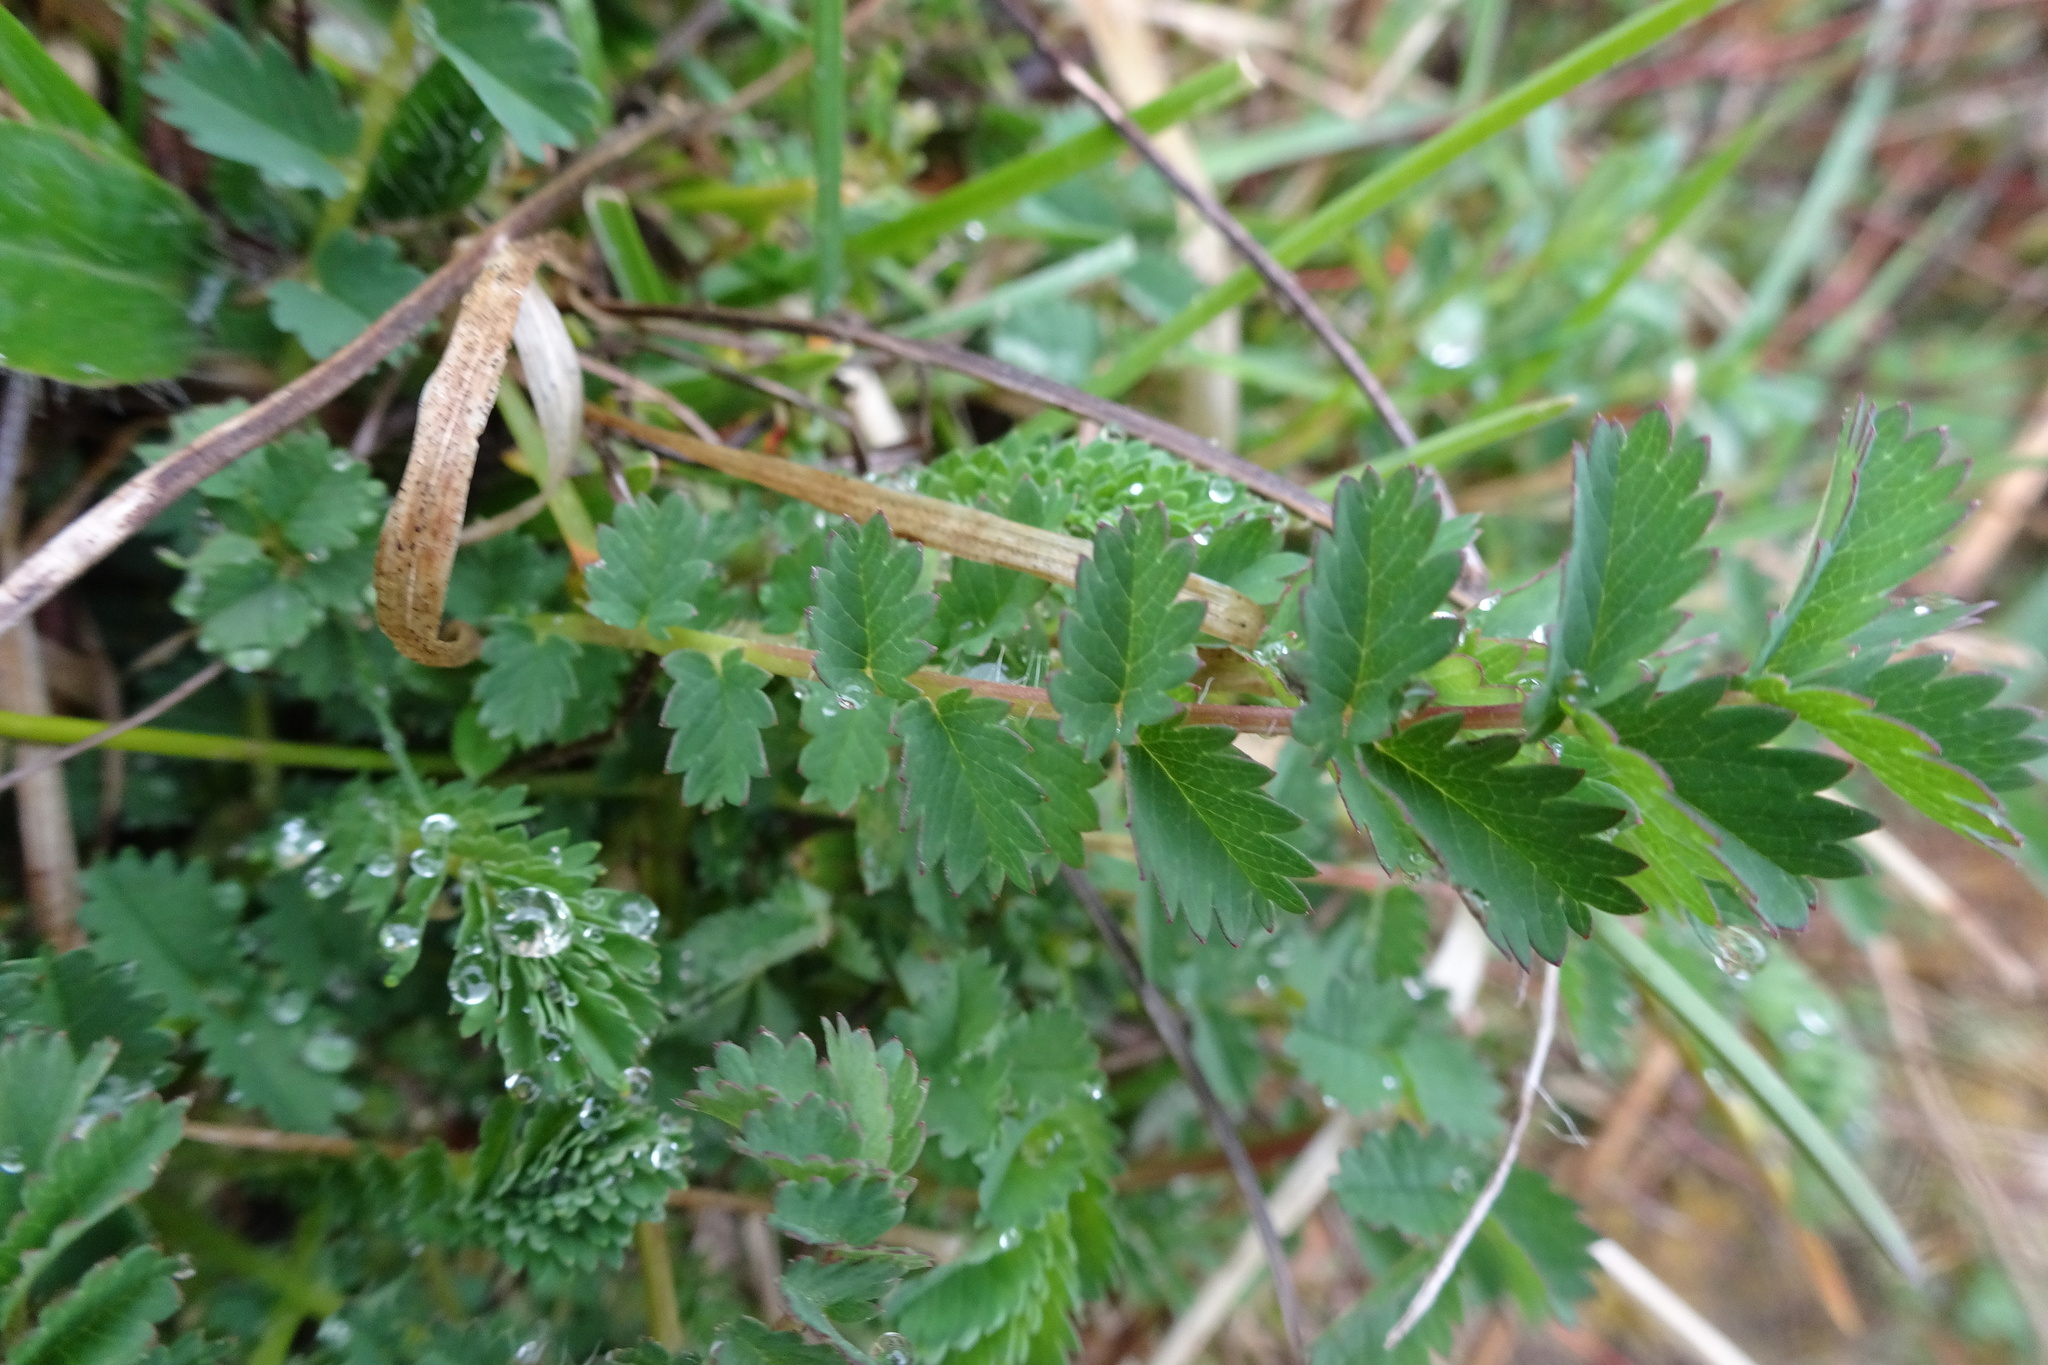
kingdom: Plantae
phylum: Tracheophyta
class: Magnoliopsida
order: Rosales
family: Rosaceae
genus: Poterium
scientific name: Poterium sanguisorba
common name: Salad burnet
